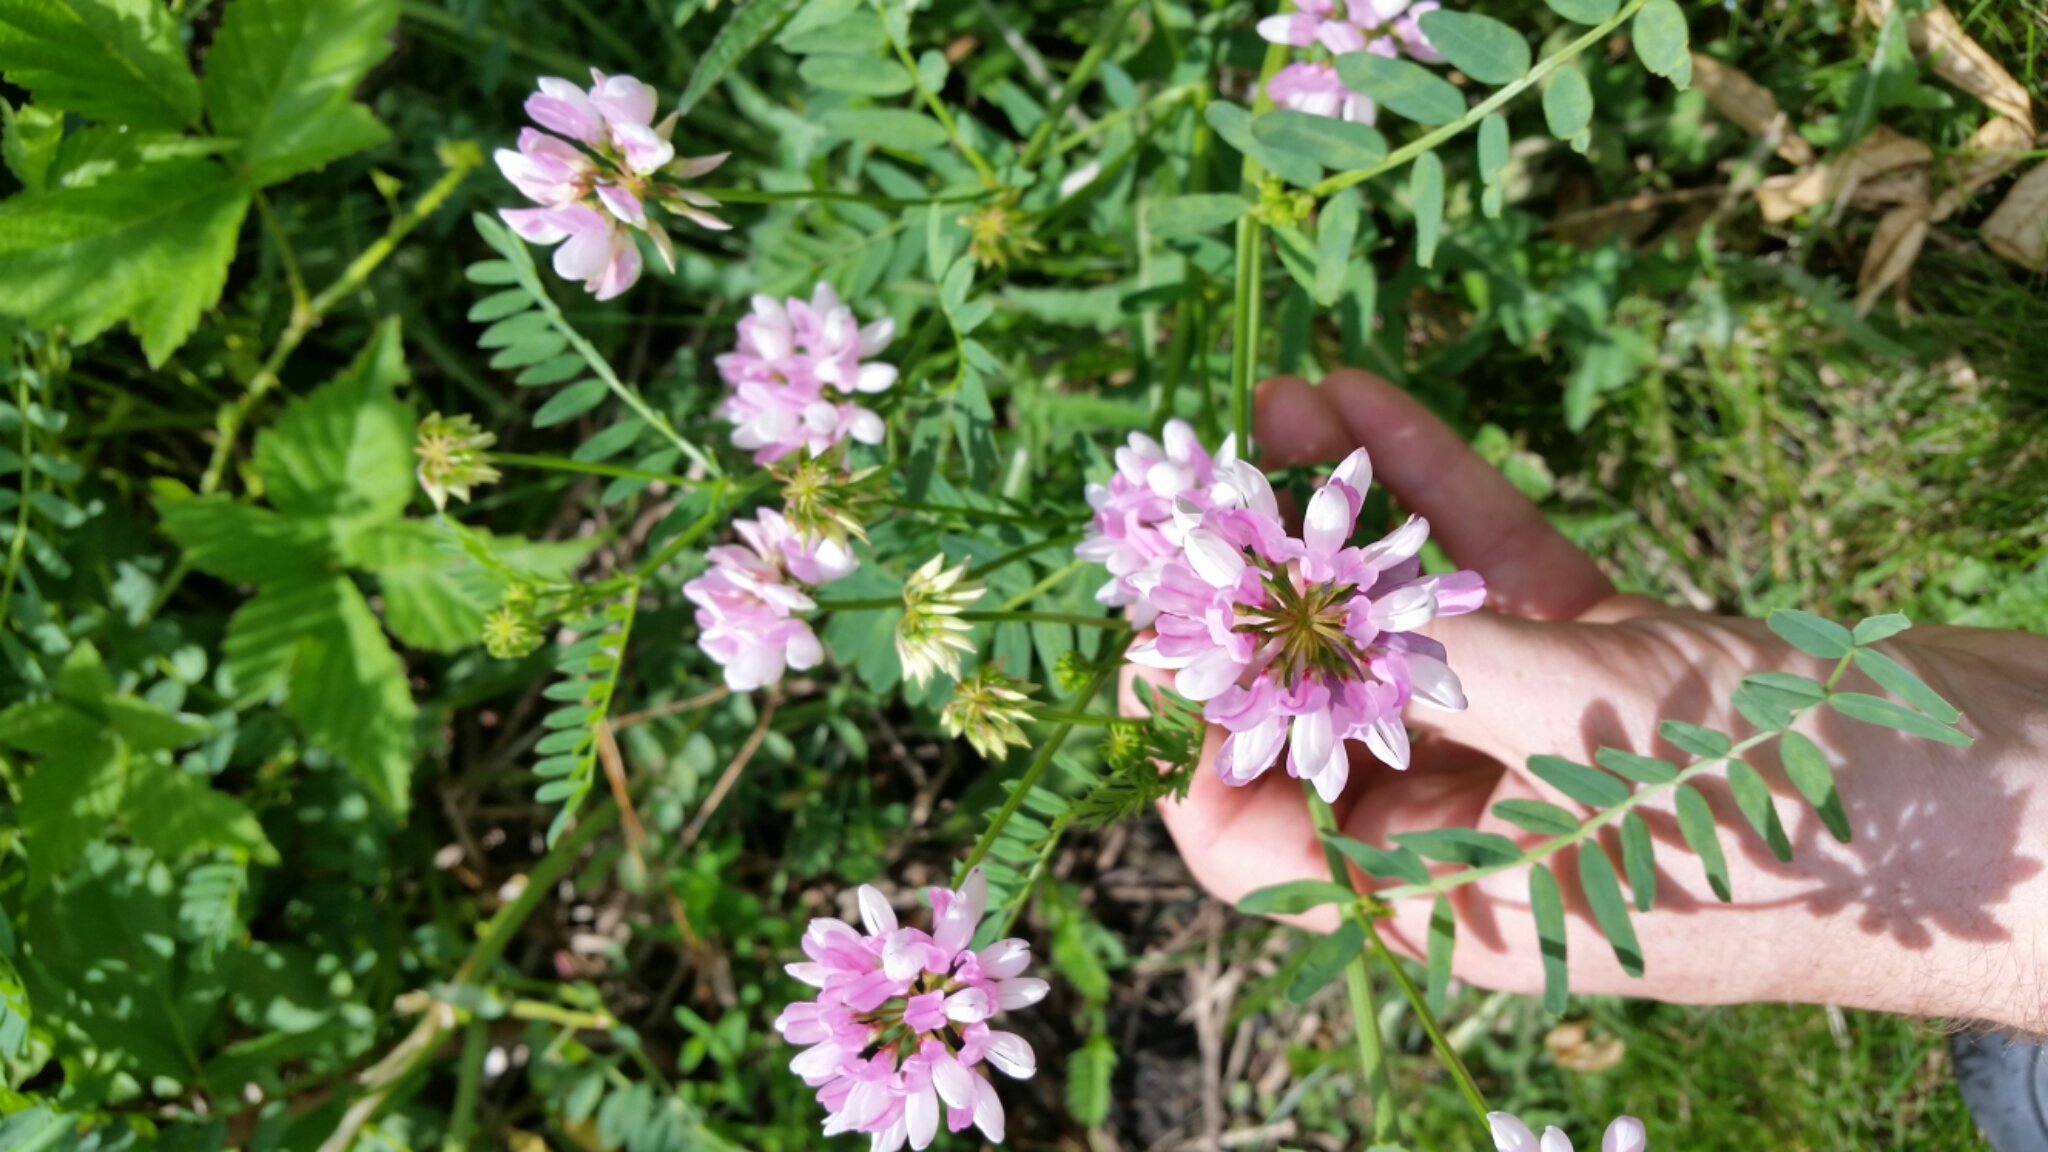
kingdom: Plantae
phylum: Tracheophyta
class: Magnoliopsida
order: Fabales
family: Fabaceae
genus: Coronilla
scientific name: Coronilla varia
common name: Crownvetch
